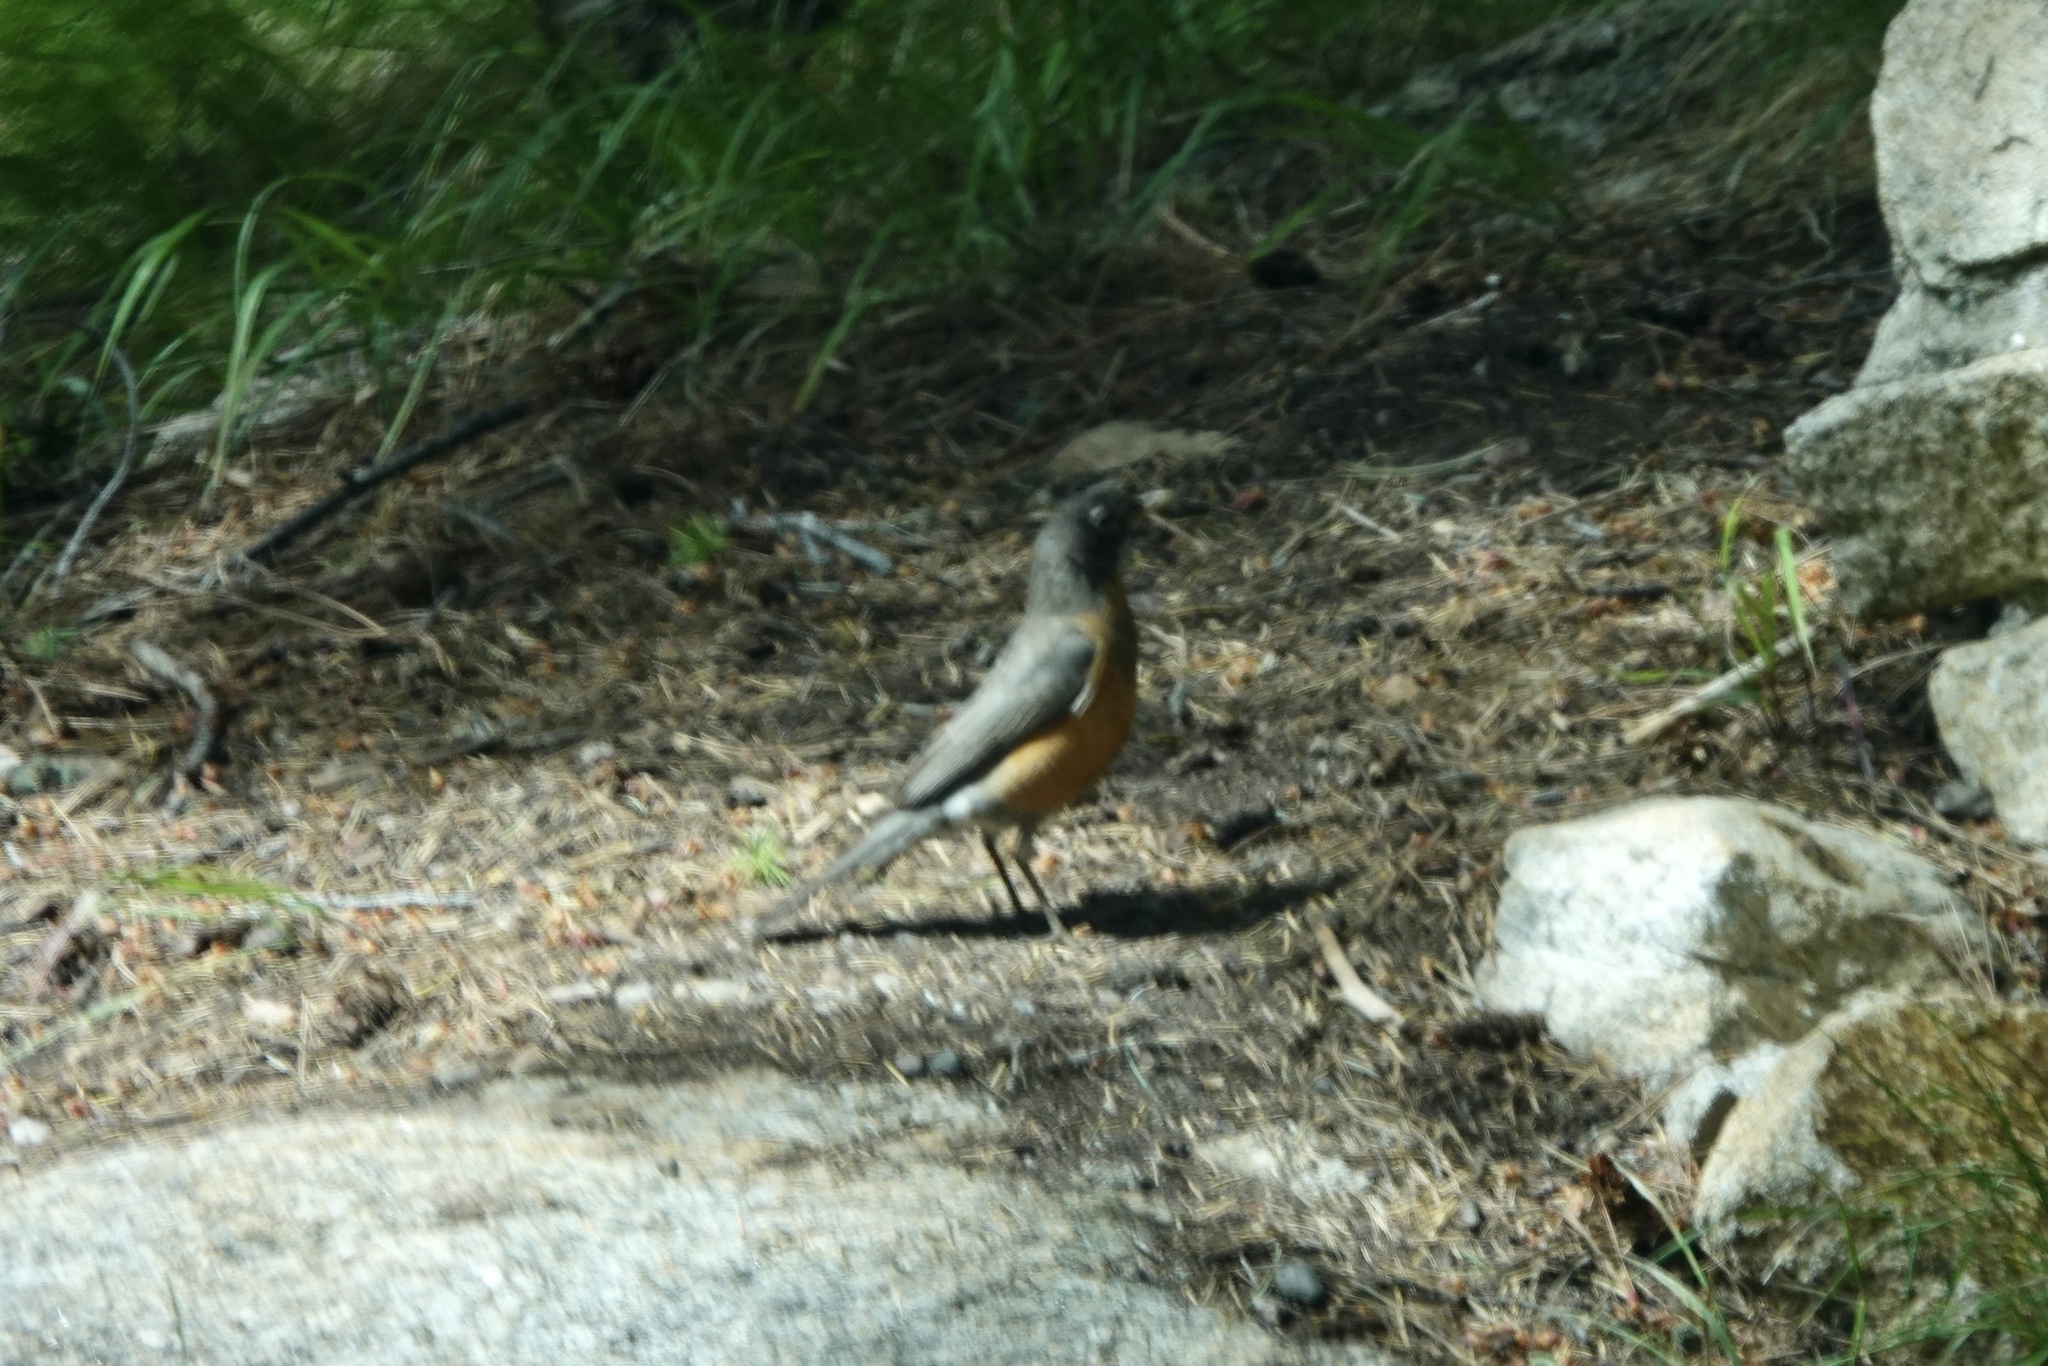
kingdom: Animalia
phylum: Chordata
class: Aves
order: Passeriformes
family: Turdidae
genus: Turdus
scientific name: Turdus migratorius
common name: American robin
